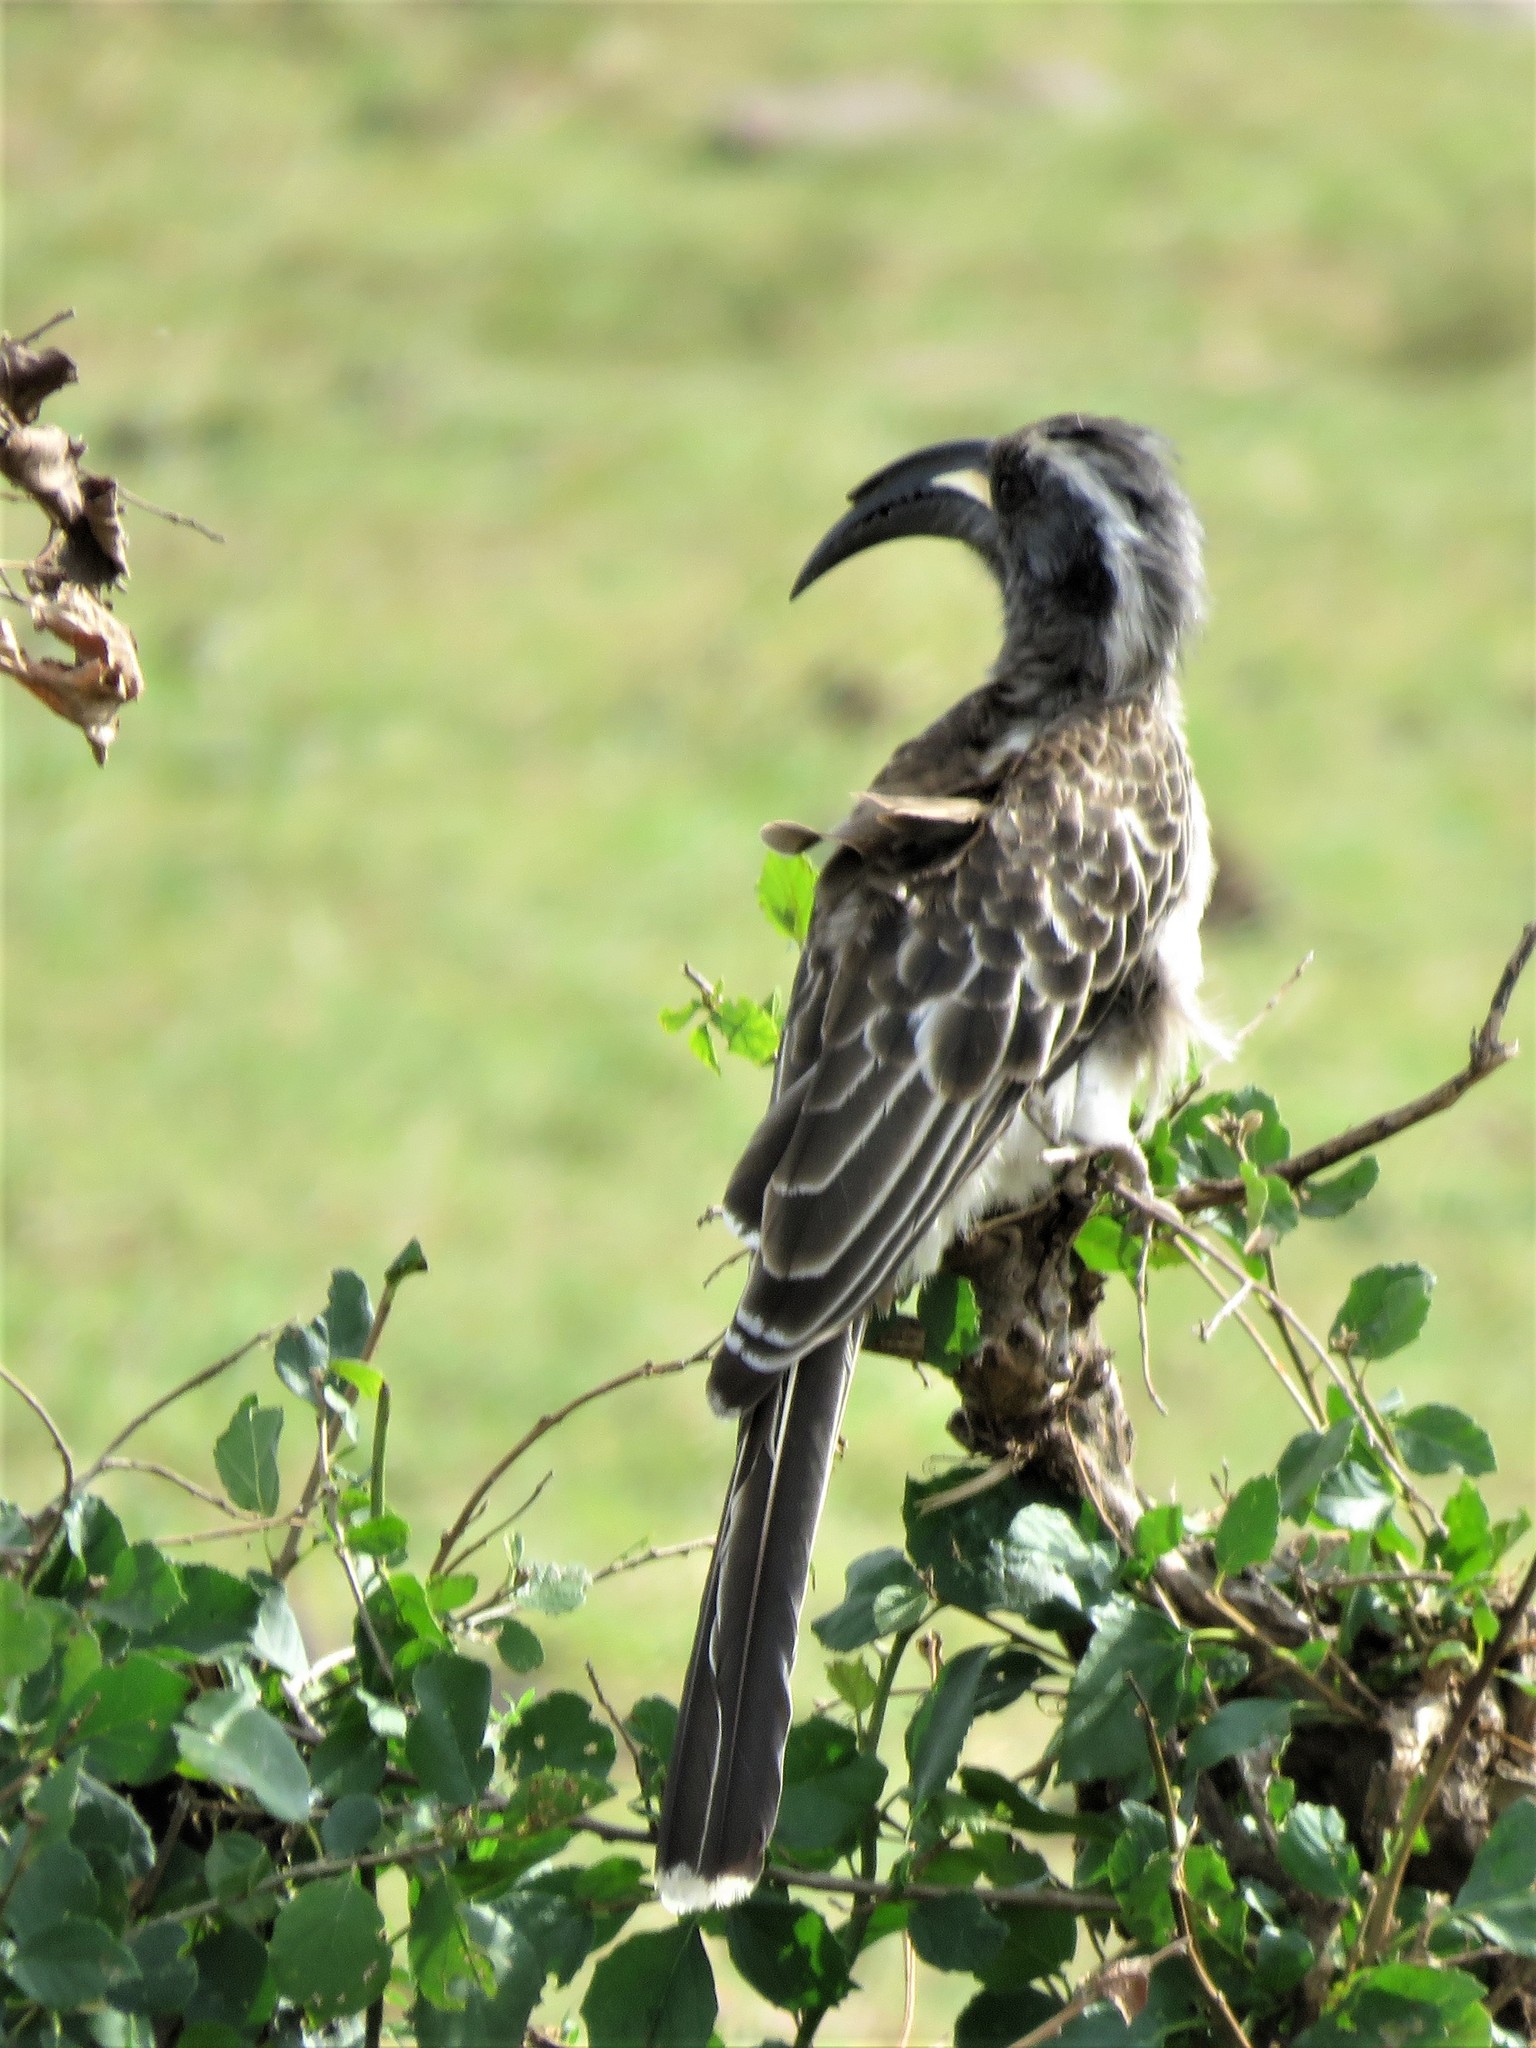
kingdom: Animalia
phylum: Chordata
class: Aves
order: Bucerotiformes
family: Bucerotidae
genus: Lophoceros
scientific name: Lophoceros nasutus
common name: African grey hornbill
